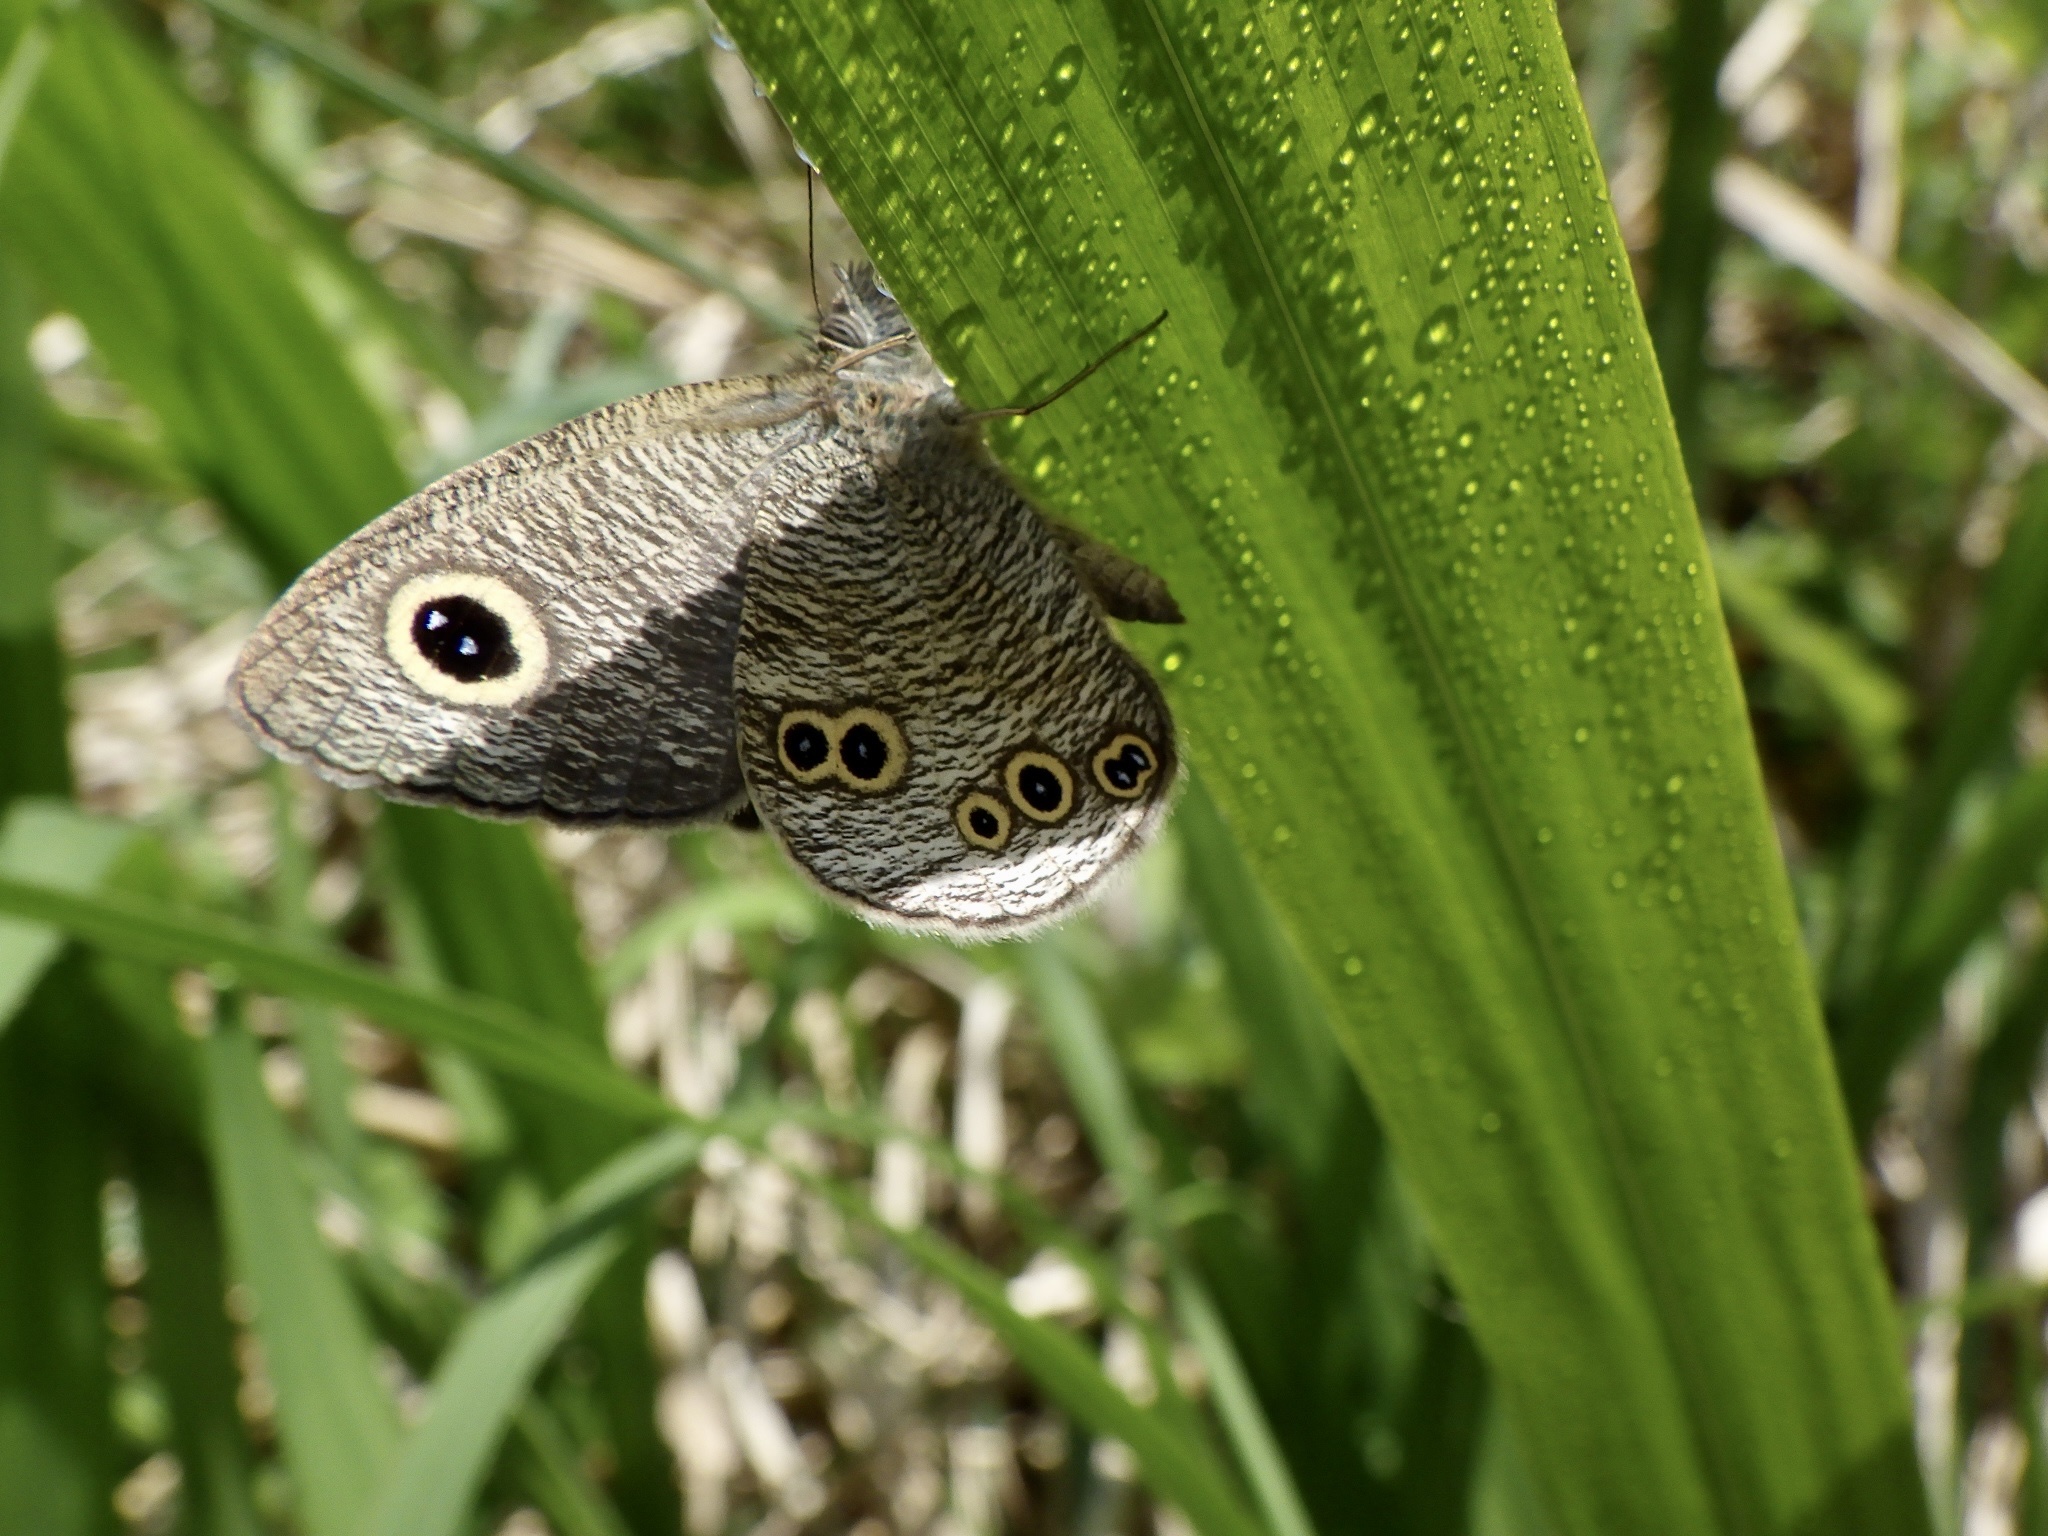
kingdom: Animalia
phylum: Arthropoda
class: Insecta
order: Lepidoptera
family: Nymphalidae
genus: Ypthima
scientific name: Ypthima argus
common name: Common fivering
